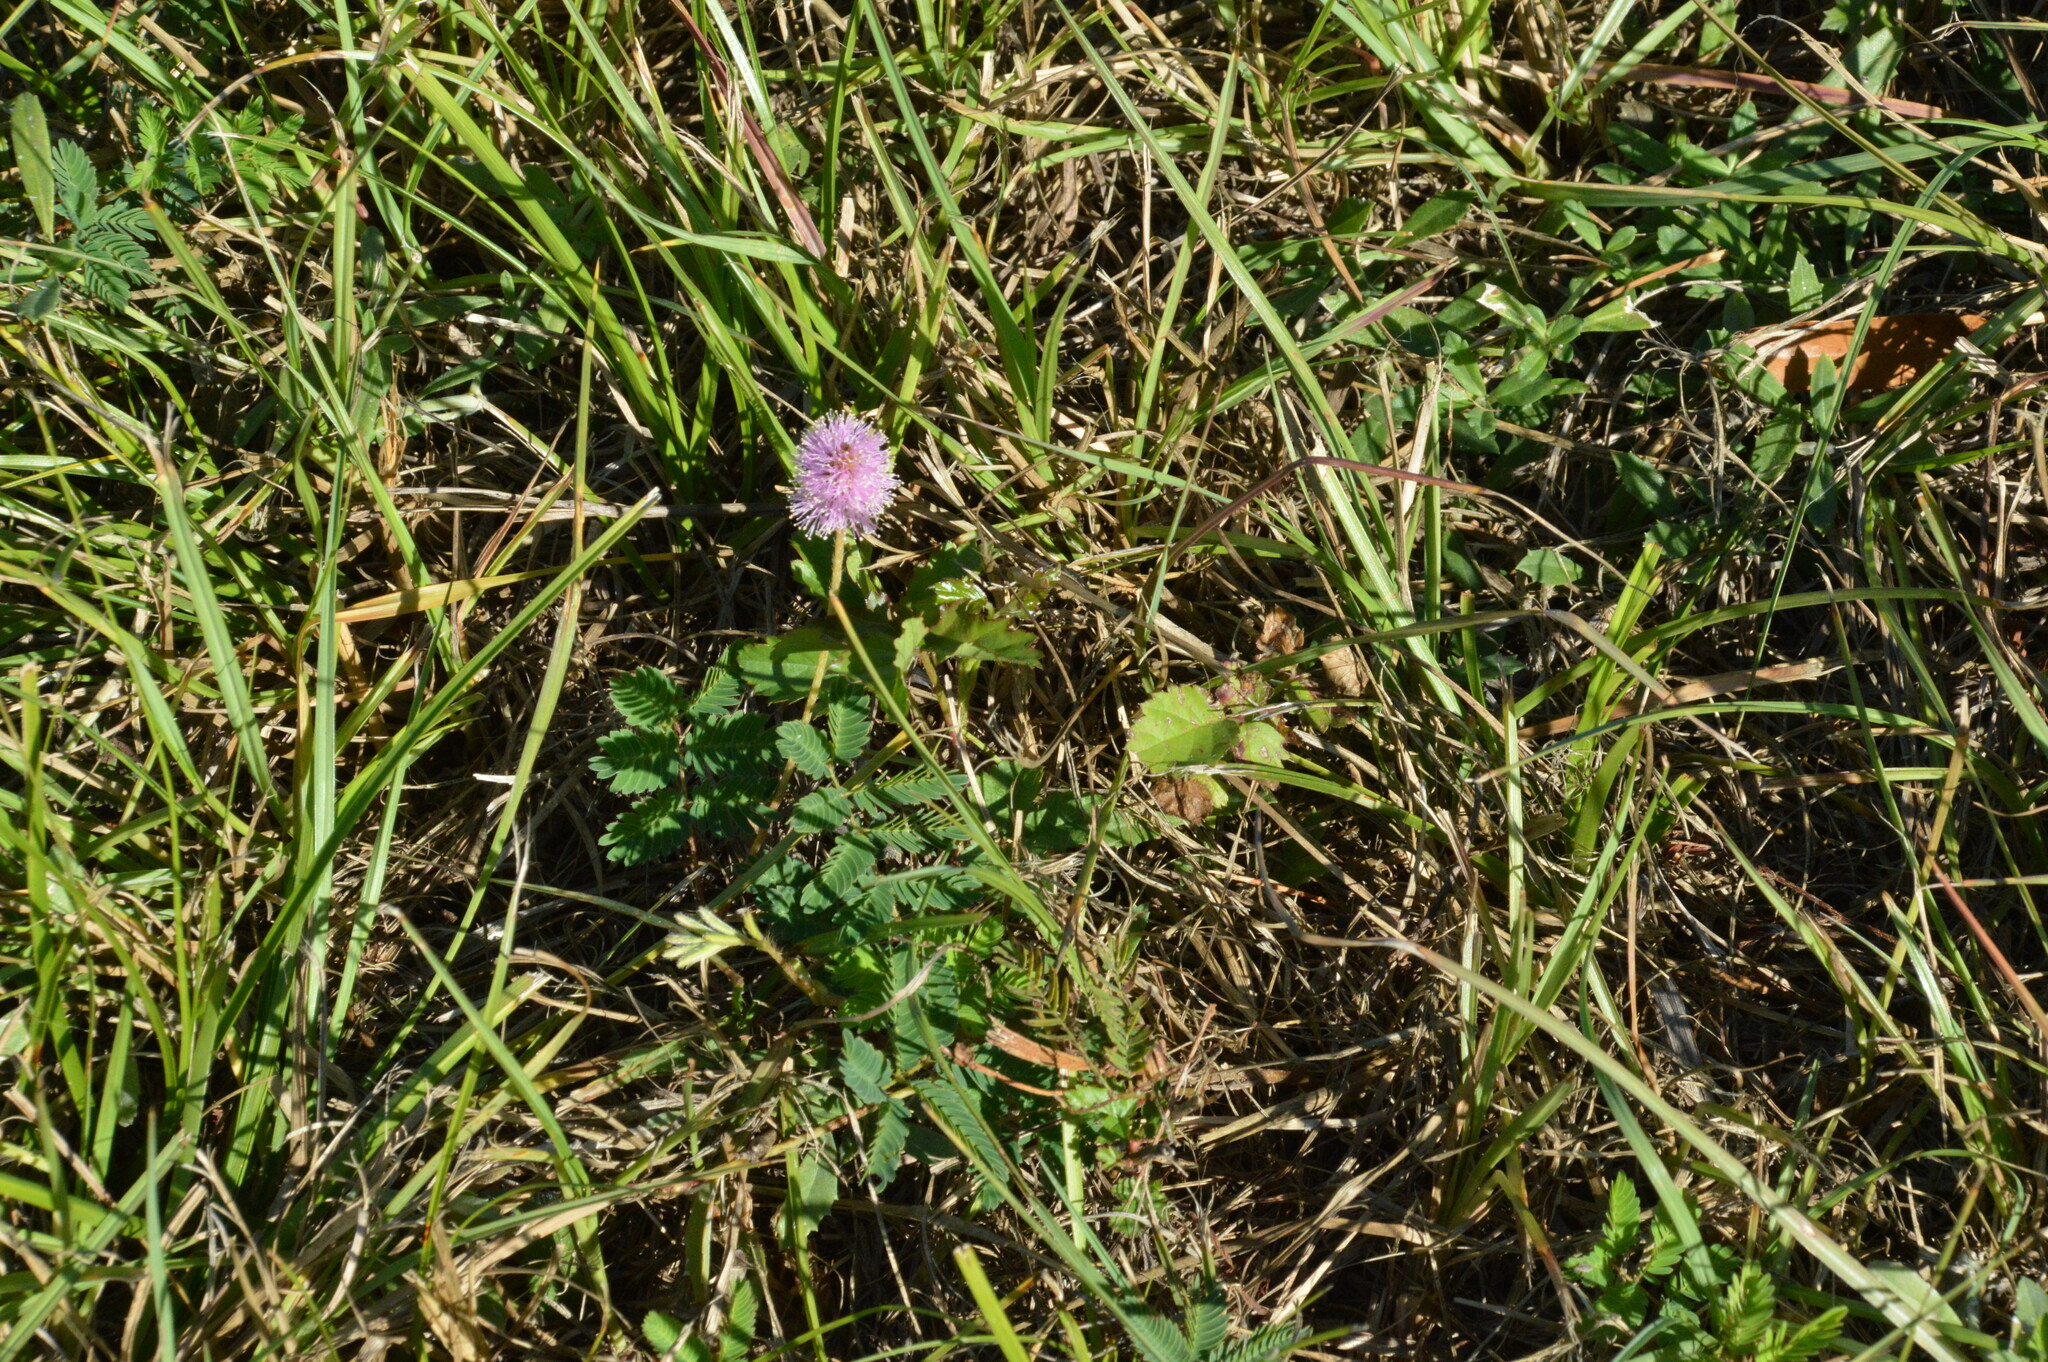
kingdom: Plantae
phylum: Tracheophyta
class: Magnoliopsida
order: Fabales
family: Fabaceae
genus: Mimosa
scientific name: Mimosa strigillosa
